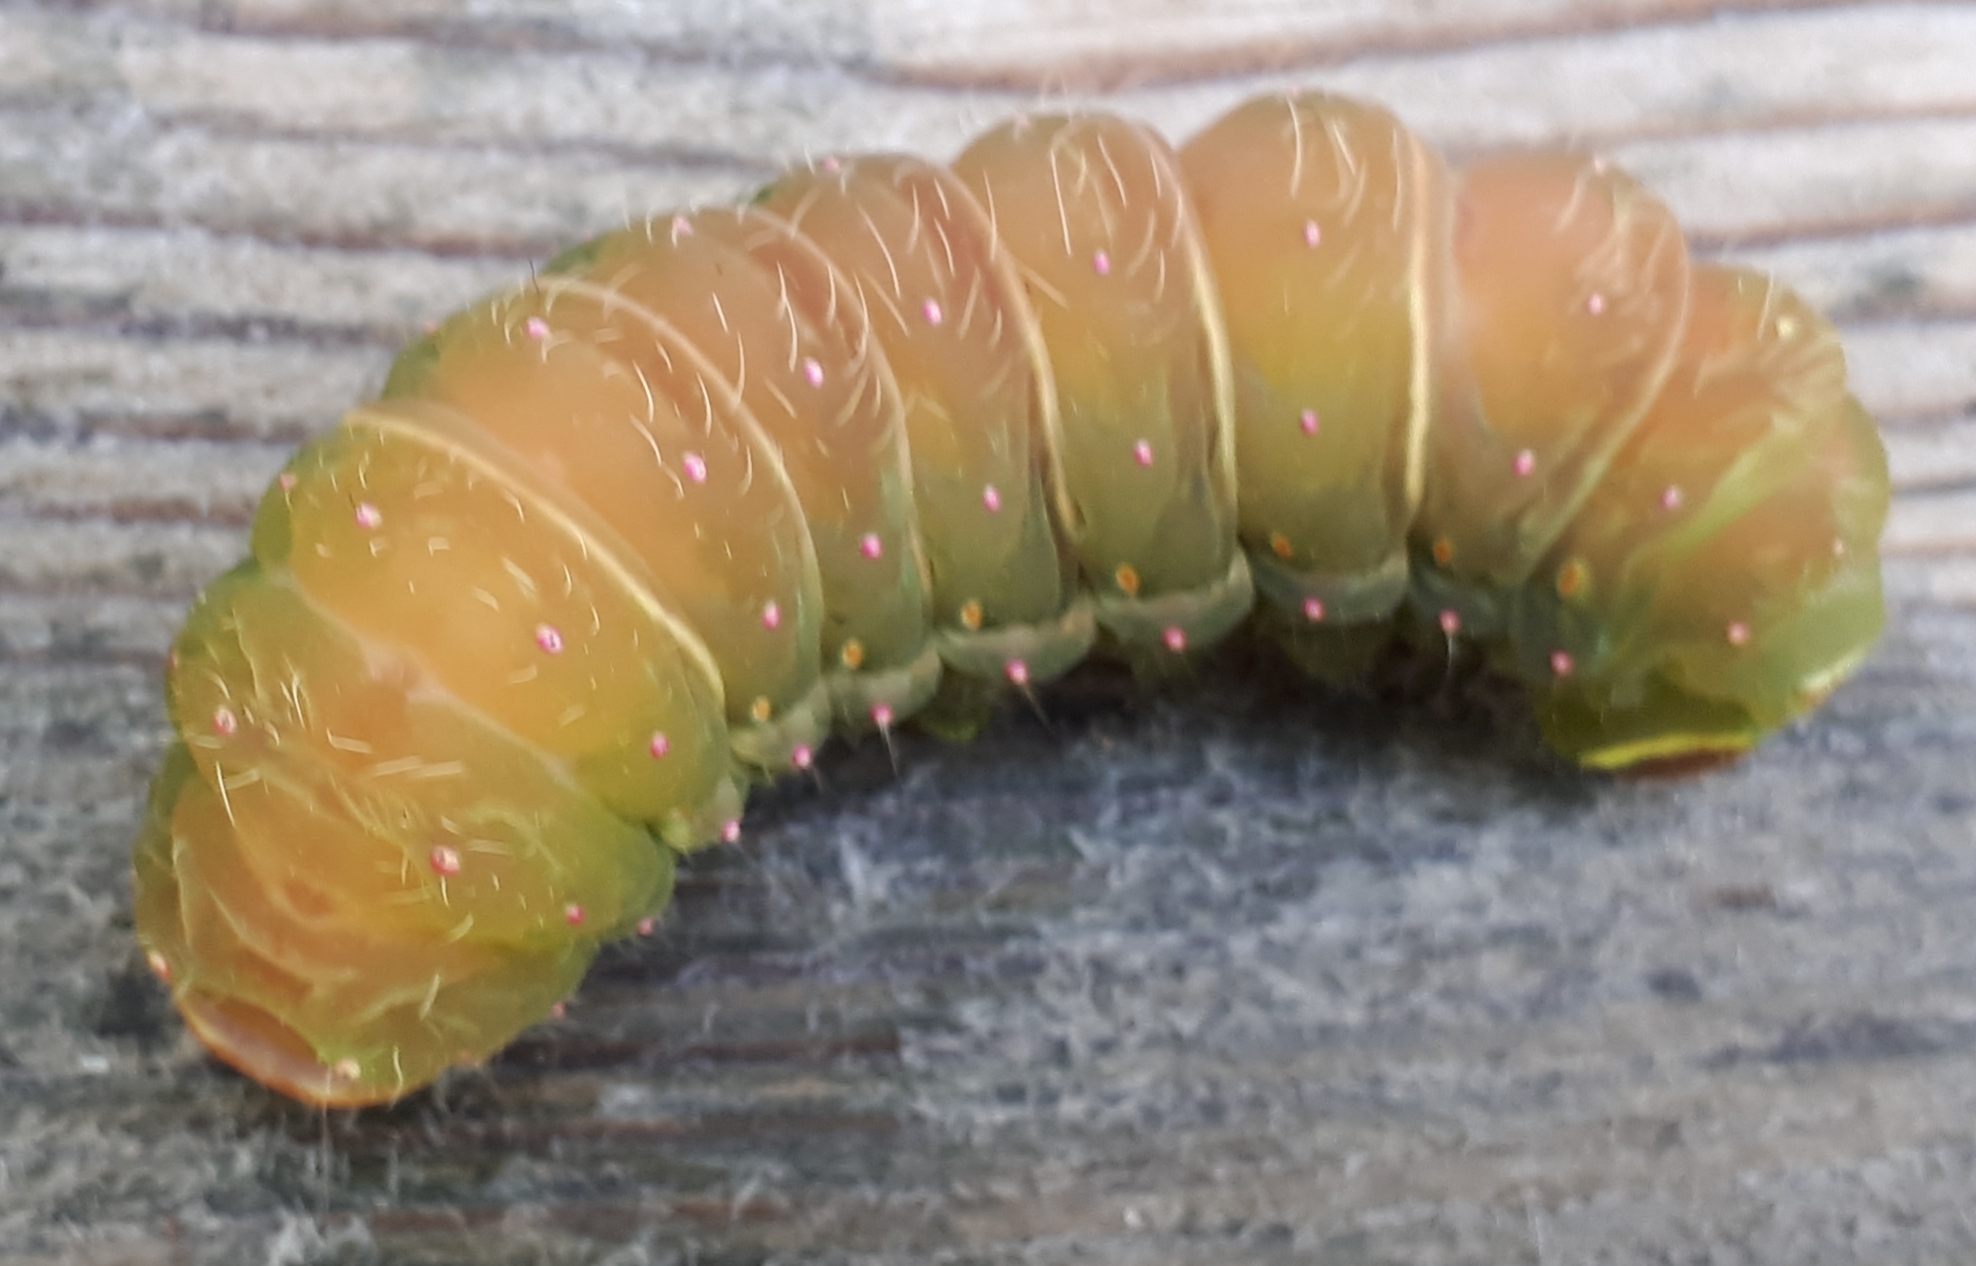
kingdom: Animalia
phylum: Arthropoda
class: Insecta
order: Lepidoptera
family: Saturniidae
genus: Actias
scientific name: Actias luna
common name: Luna moth
